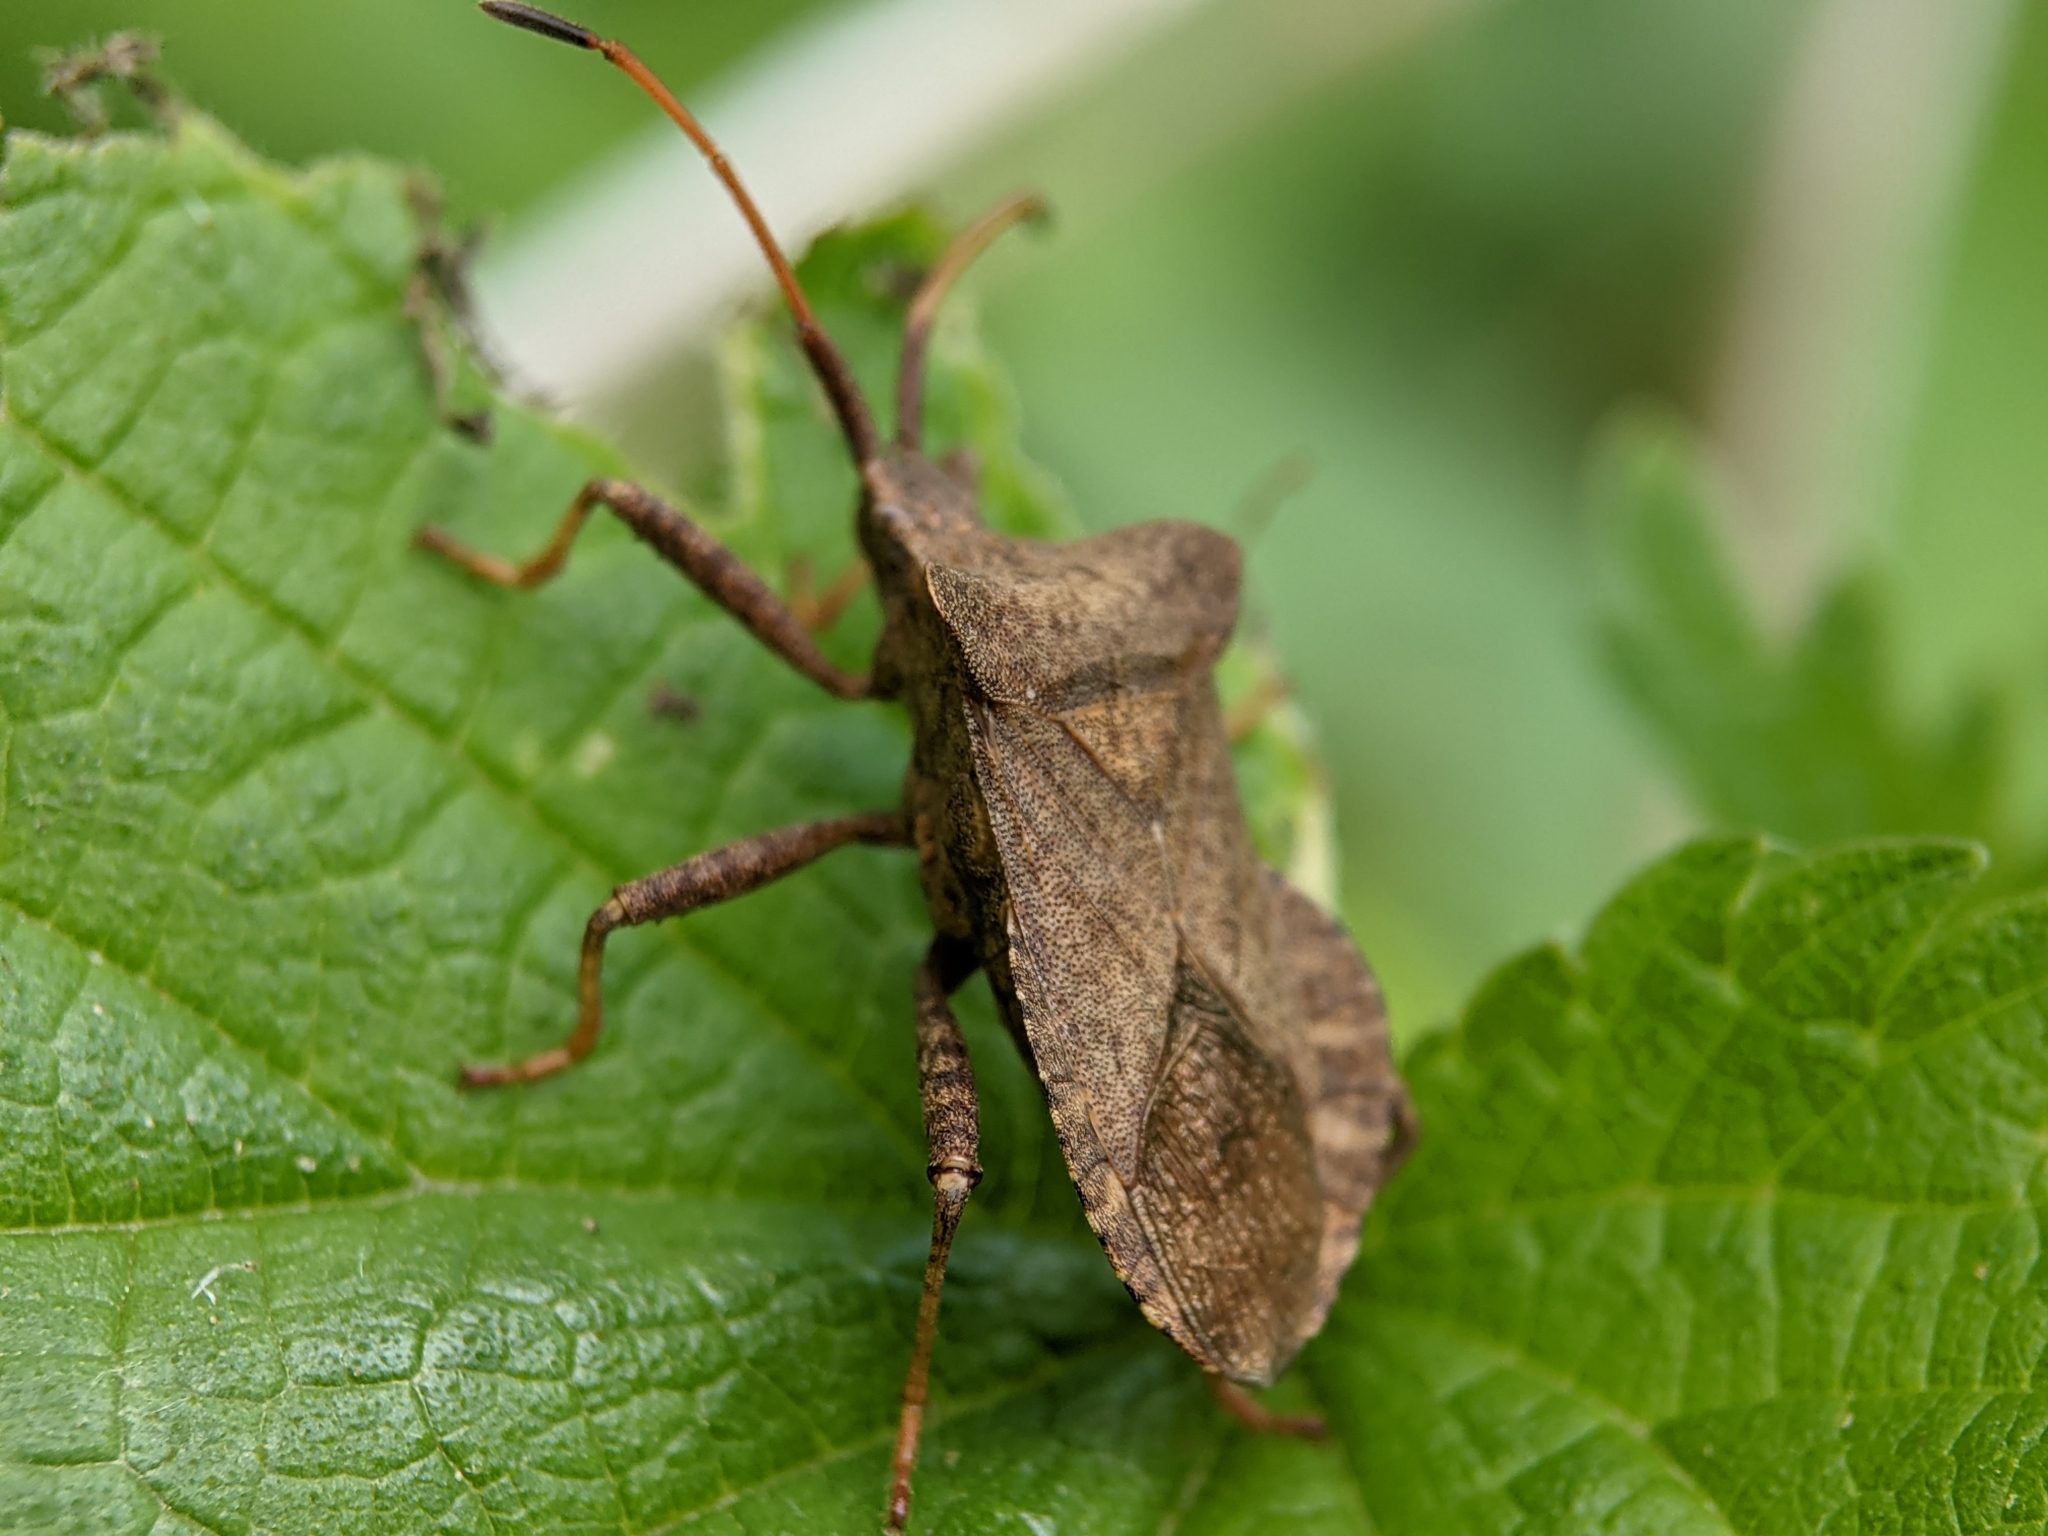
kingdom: Animalia
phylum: Arthropoda
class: Insecta
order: Hemiptera
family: Coreidae
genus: Coreus
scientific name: Coreus marginatus
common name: Dock bug
